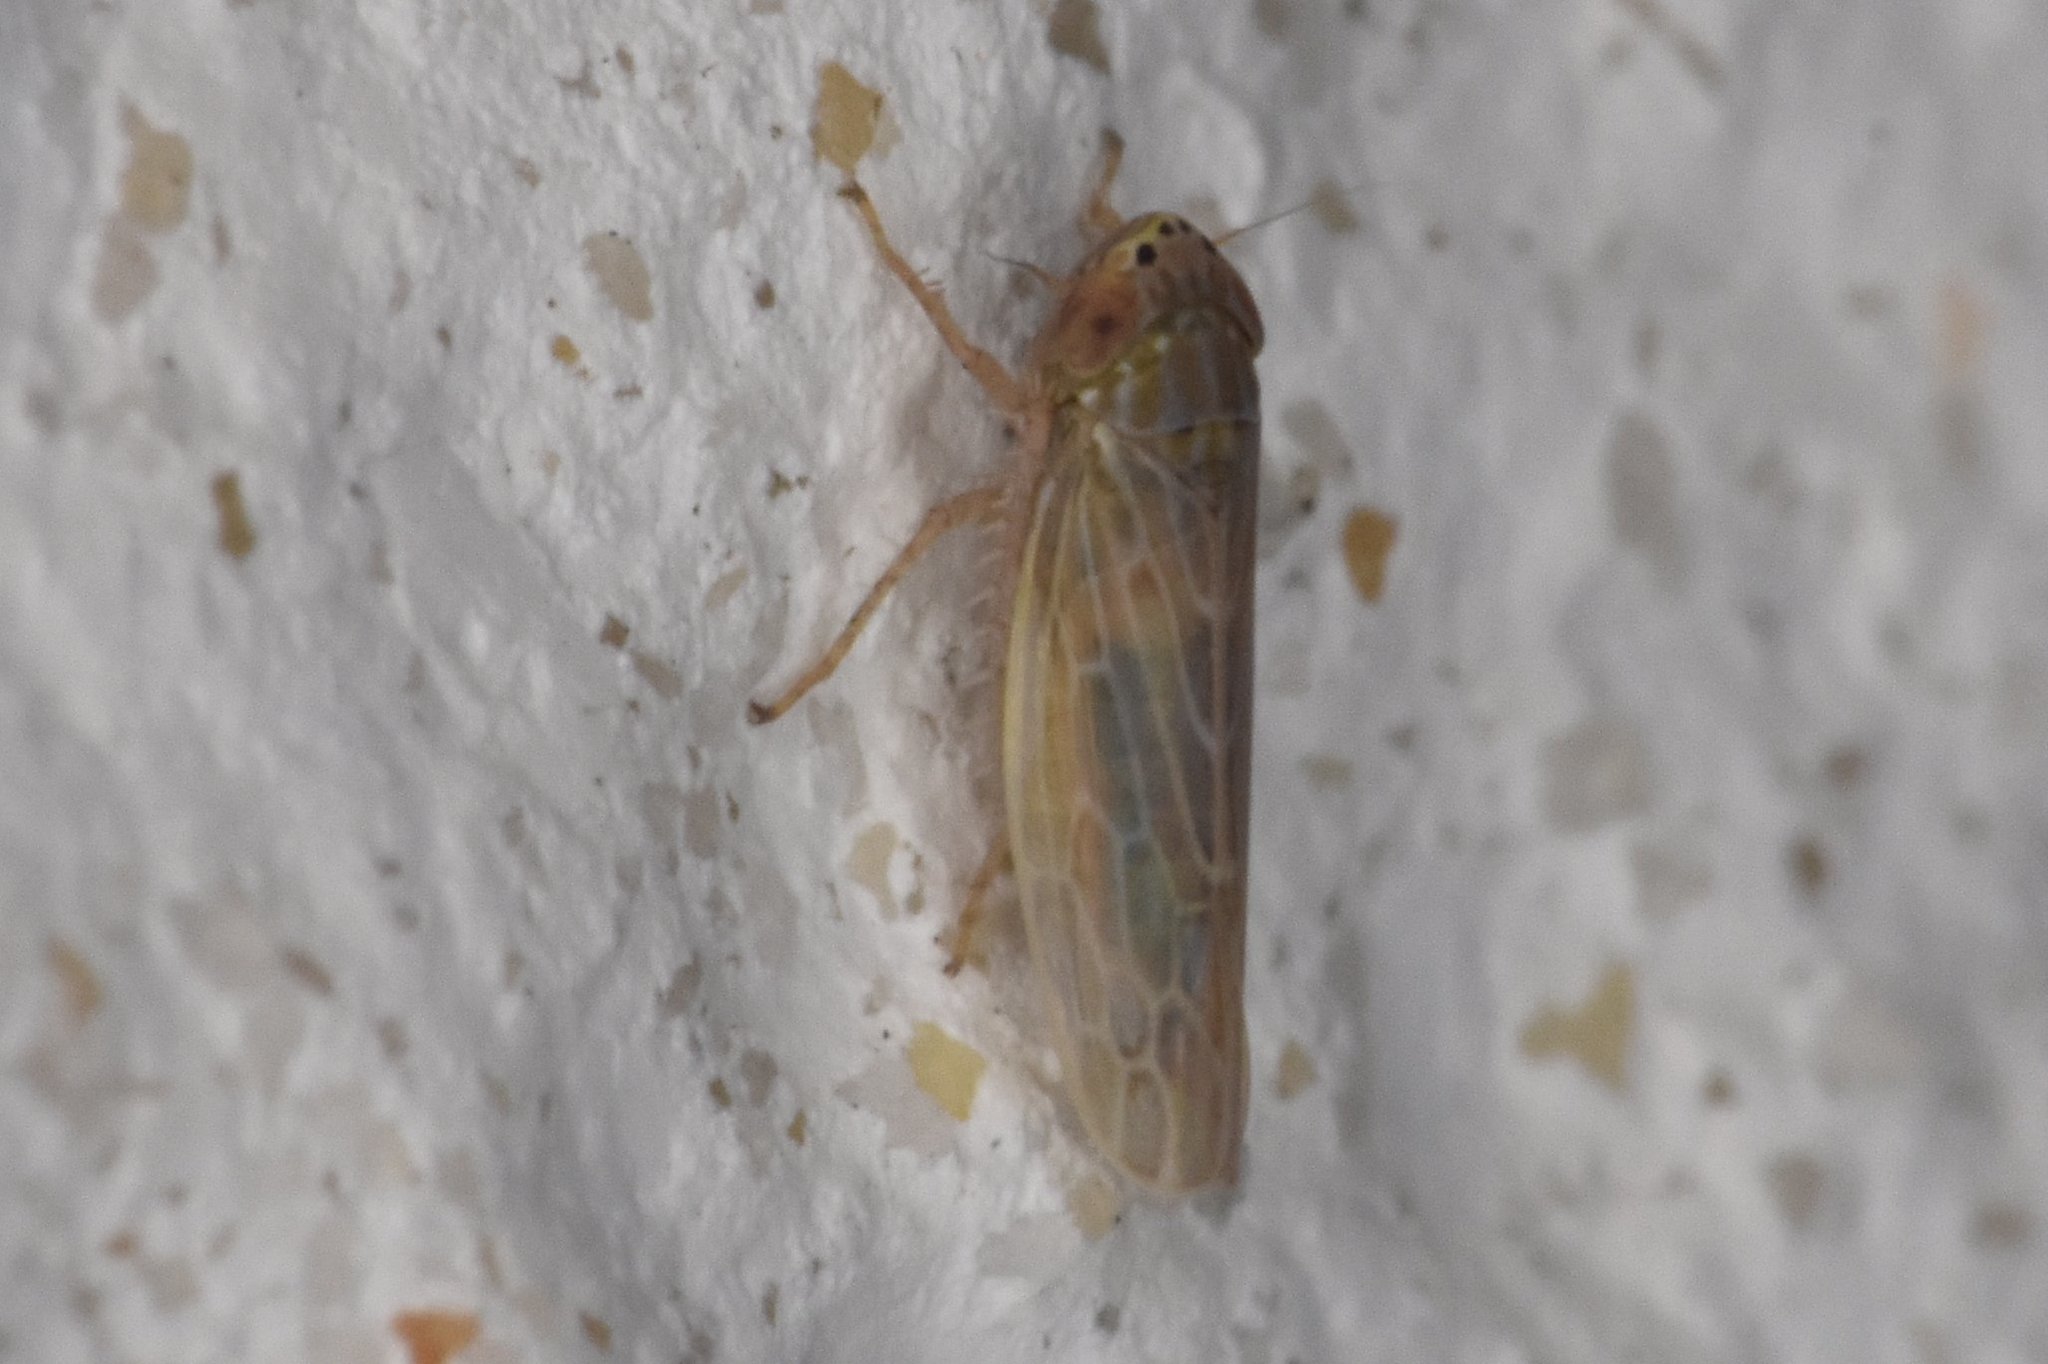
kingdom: Animalia
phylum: Arthropoda
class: Insecta
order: Hemiptera
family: Cicadellidae
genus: Graminella
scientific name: Graminella sonora
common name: Lesser lawn leafhopper
